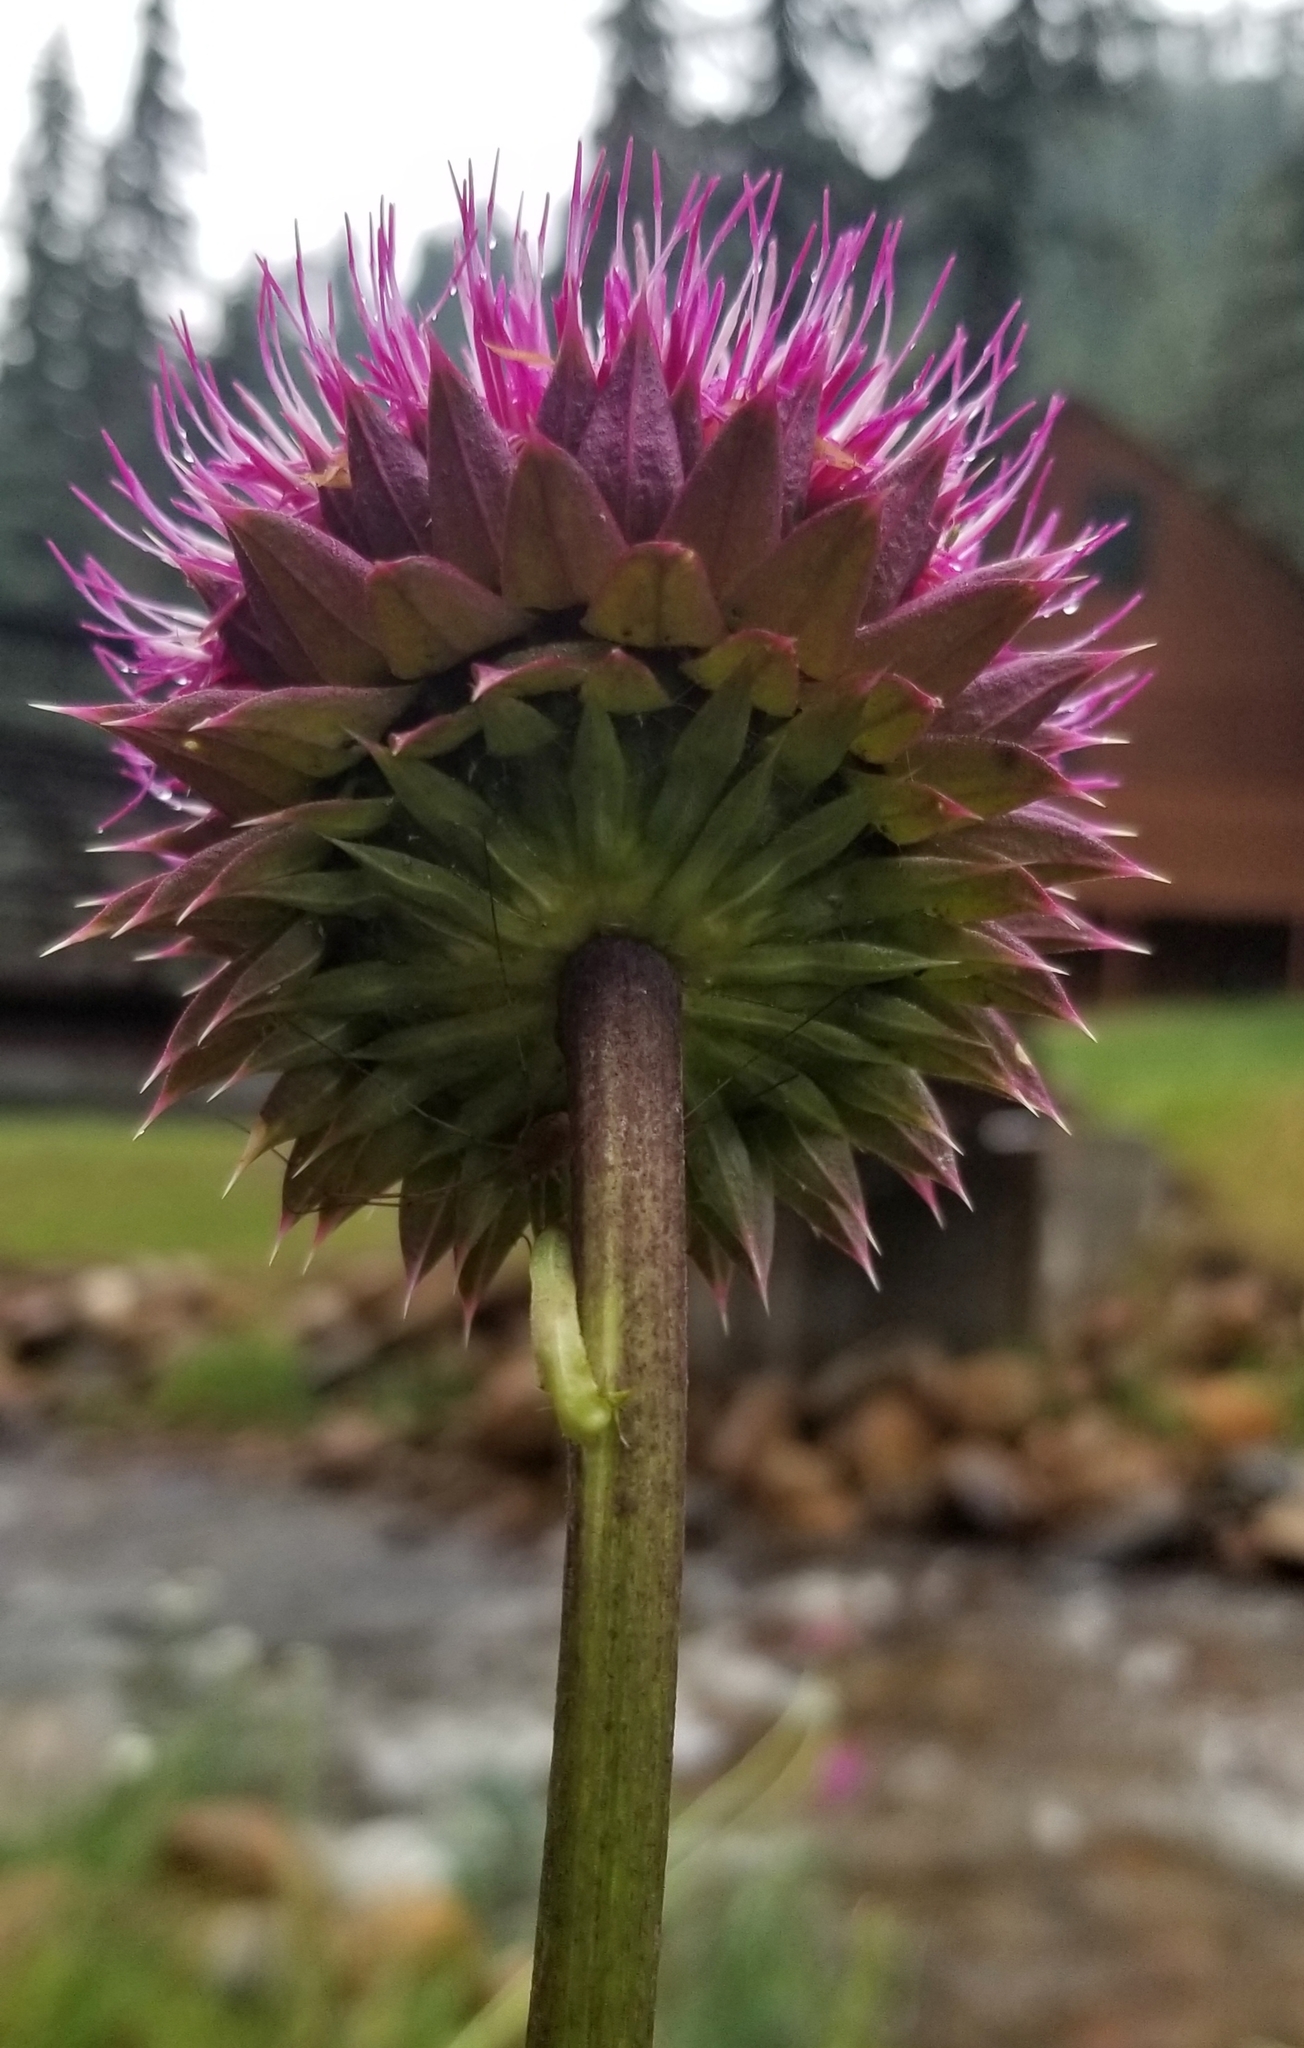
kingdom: Plantae
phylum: Tracheophyta
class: Magnoliopsida
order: Asterales
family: Asteraceae
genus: Carduus
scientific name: Carduus nutans
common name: Musk thistle
